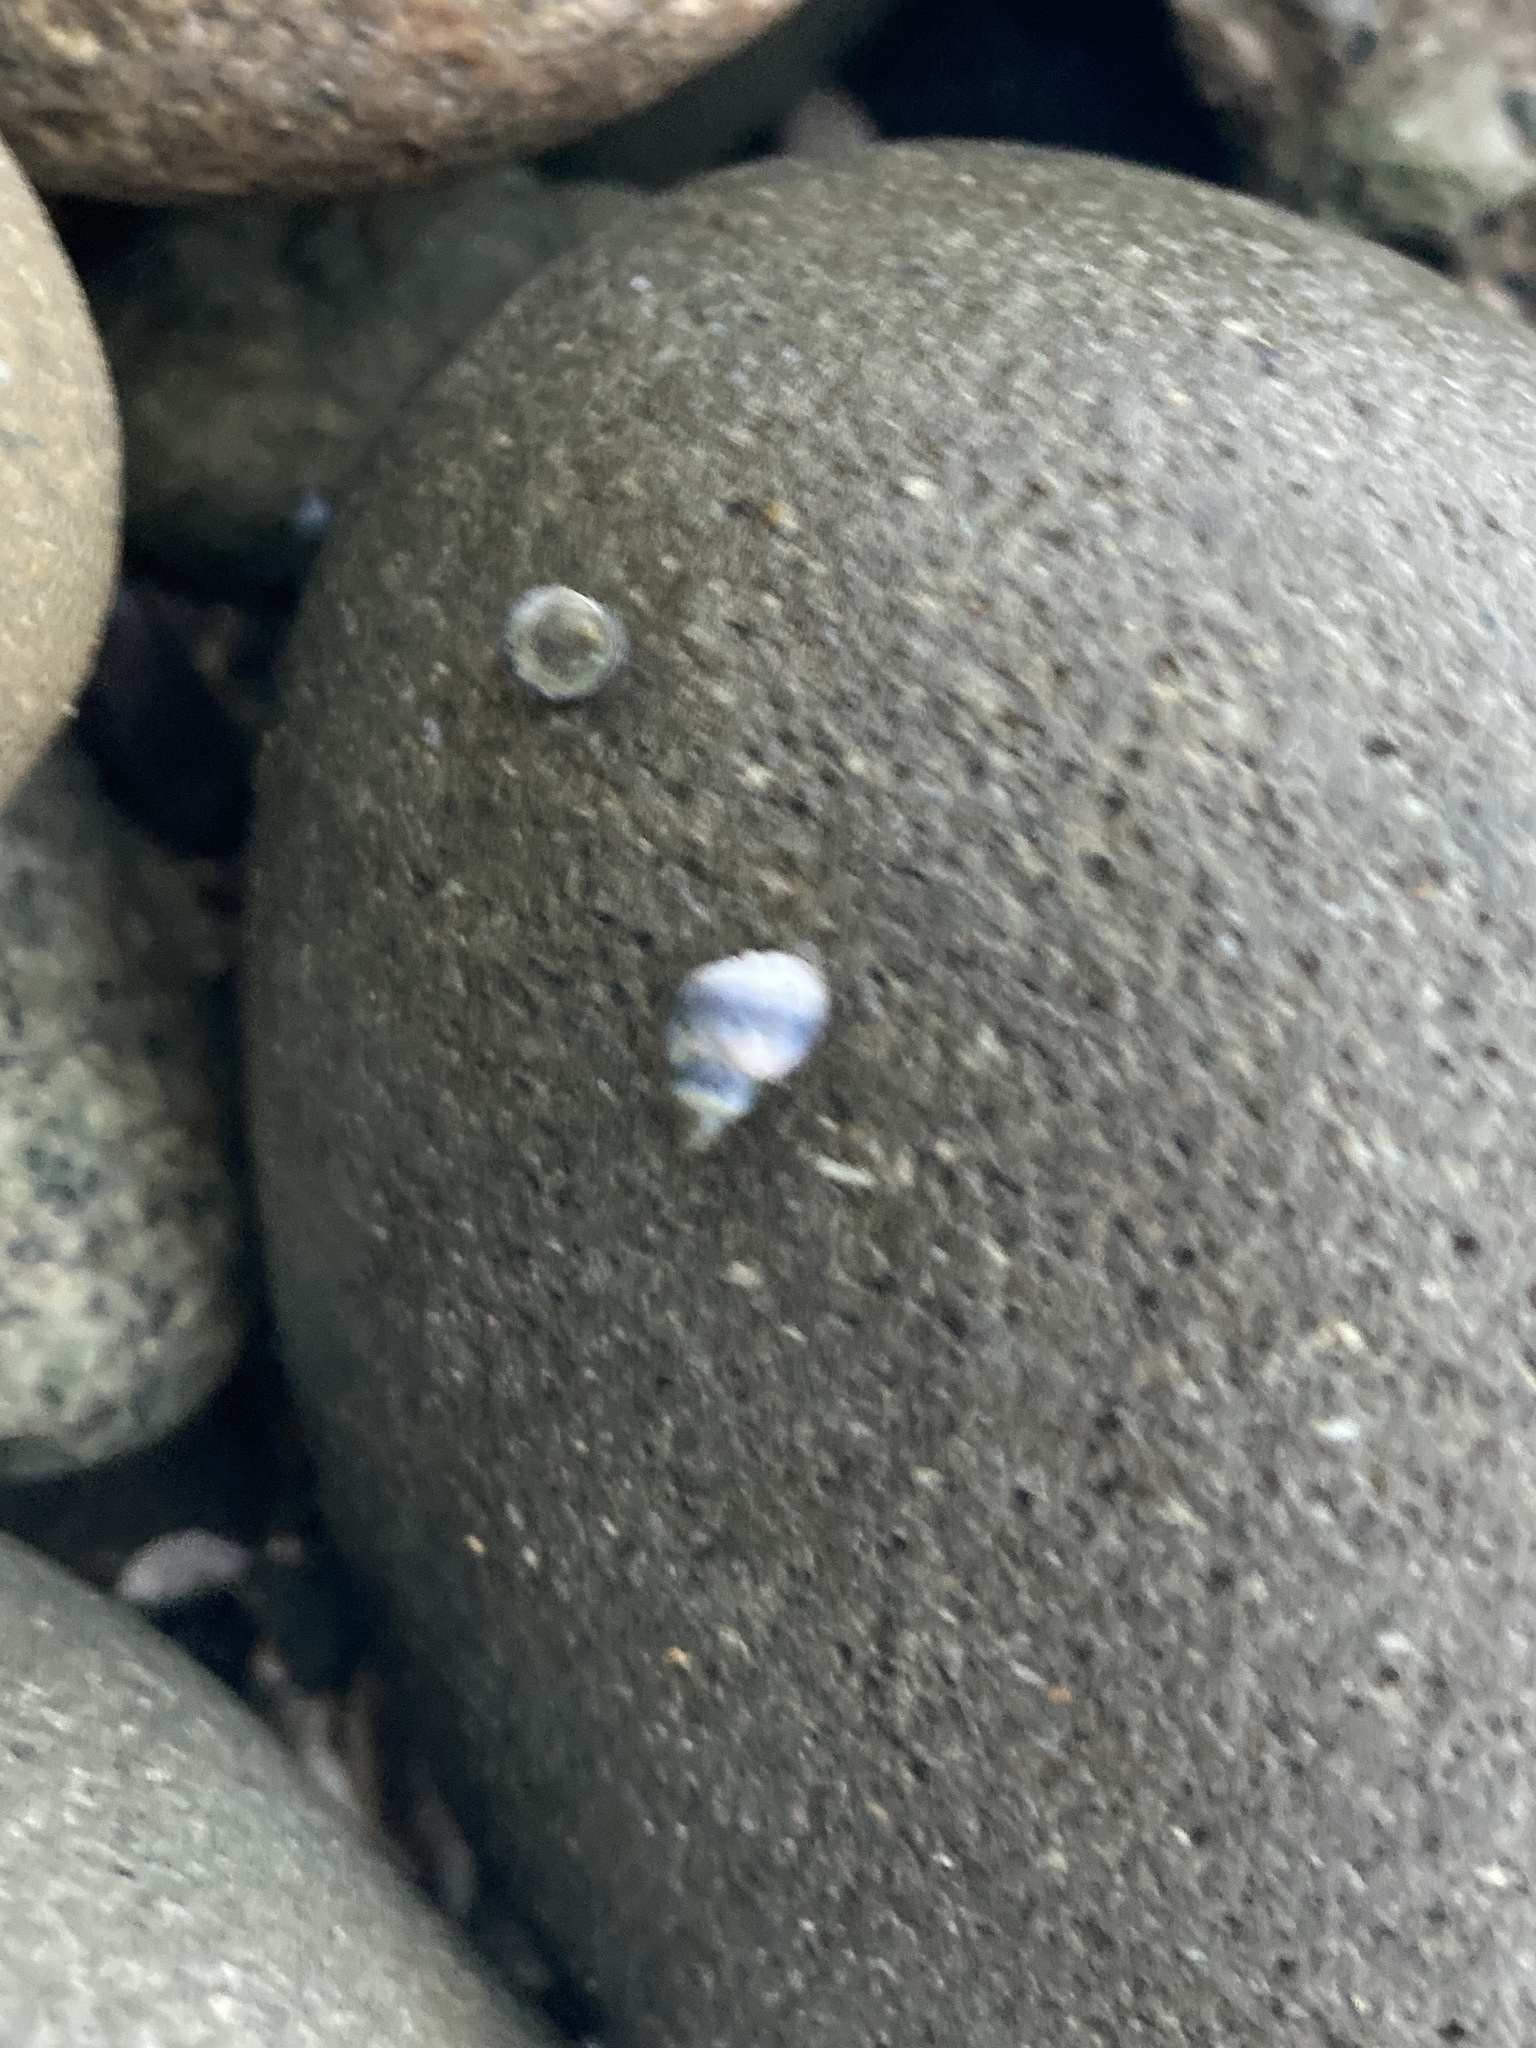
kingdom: Animalia
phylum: Mollusca
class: Gastropoda
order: Littorinimorpha
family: Littorinidae
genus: Austrolittorina
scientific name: Austrolittorina antipodum
